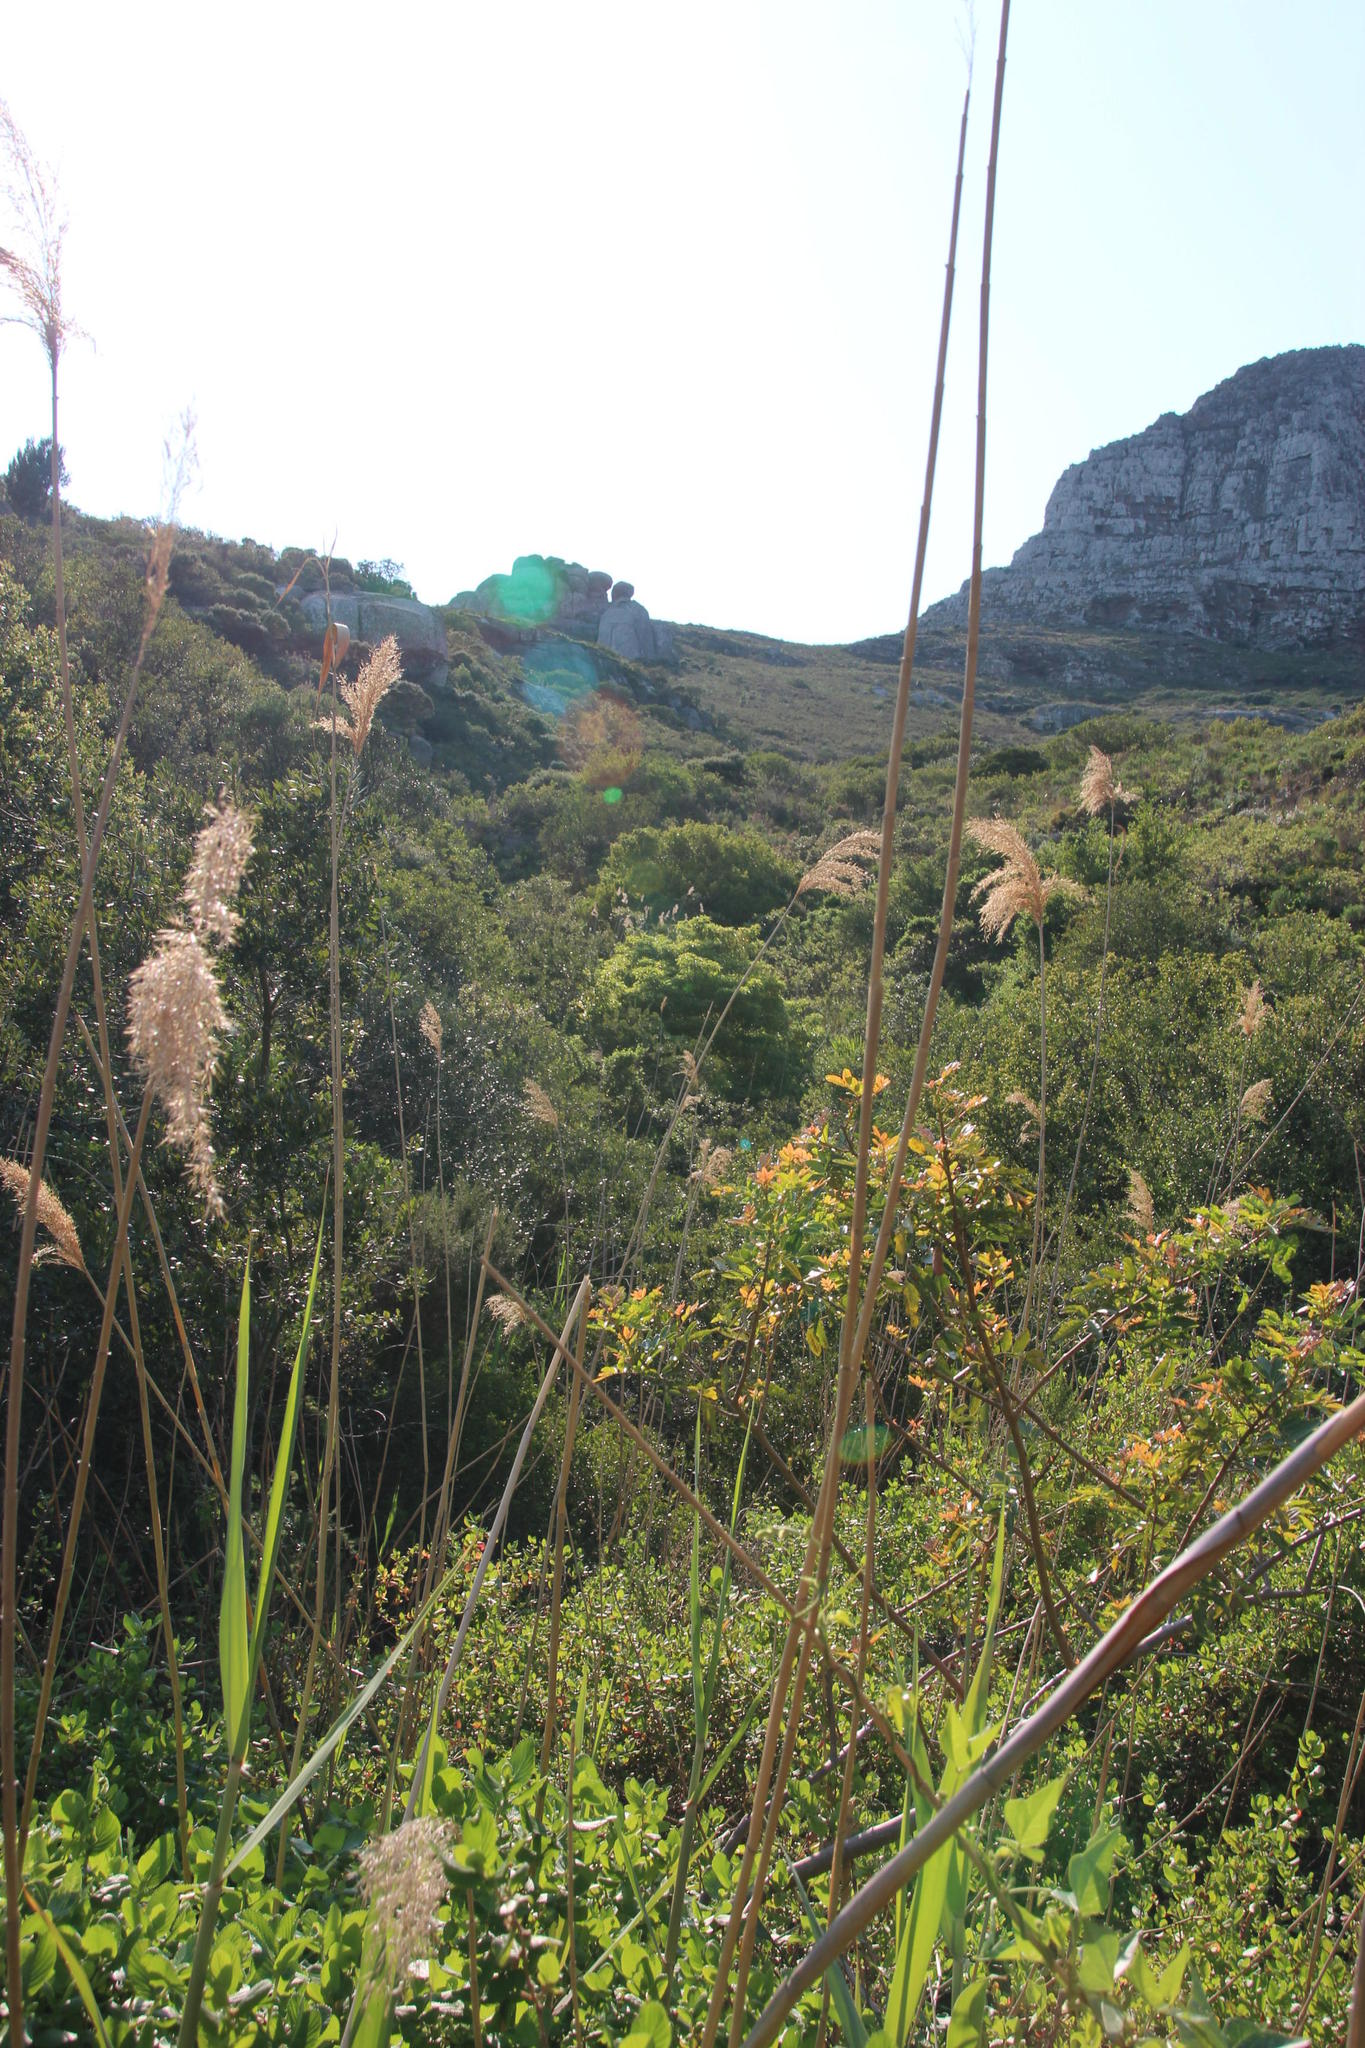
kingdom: Plantae
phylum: Tracheophyta
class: Liliopsida
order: Poales
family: Poaceae
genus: Phragmites
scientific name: Phragmites australis
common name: Common reed
